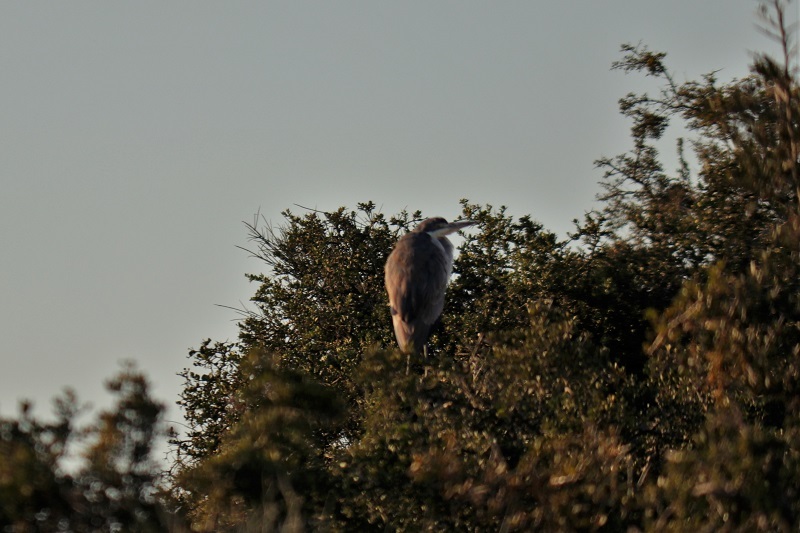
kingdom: Animalia
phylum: Chordata
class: Aves
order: Pelecaniformes
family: Ardeidae
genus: Ardea
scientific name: Ardea melanocephala
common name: Black-headed heron
